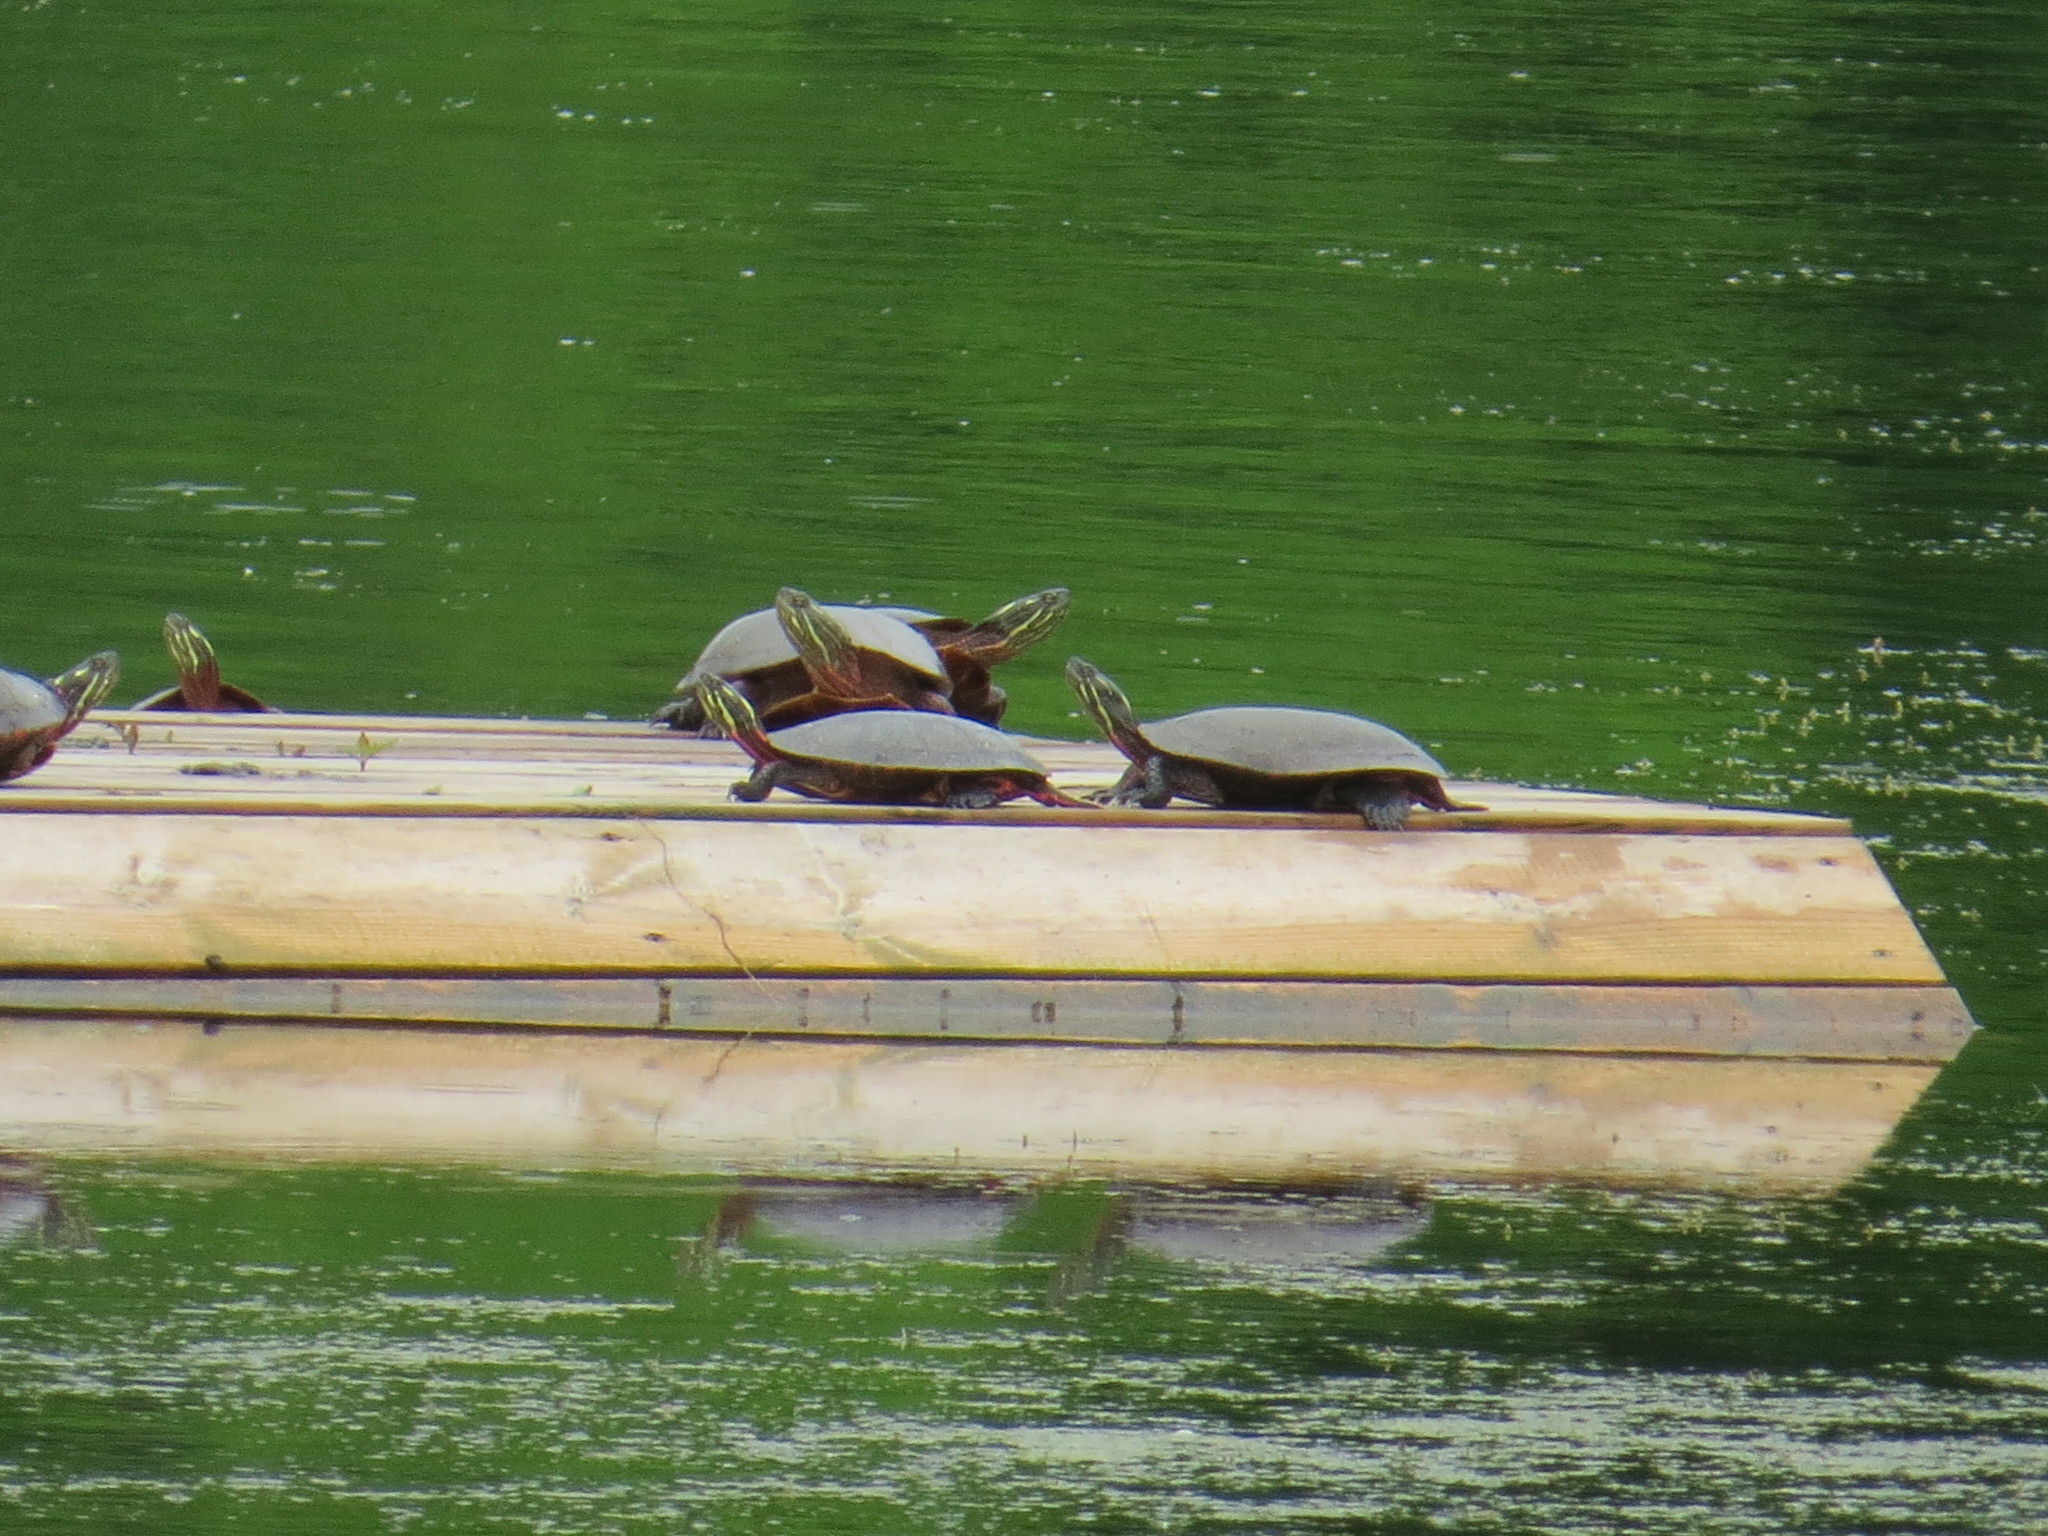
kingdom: Animalia
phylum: Chordata
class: Testudines
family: Emydidae
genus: Chrysemys
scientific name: Chrysemys picta
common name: Painted turtle
